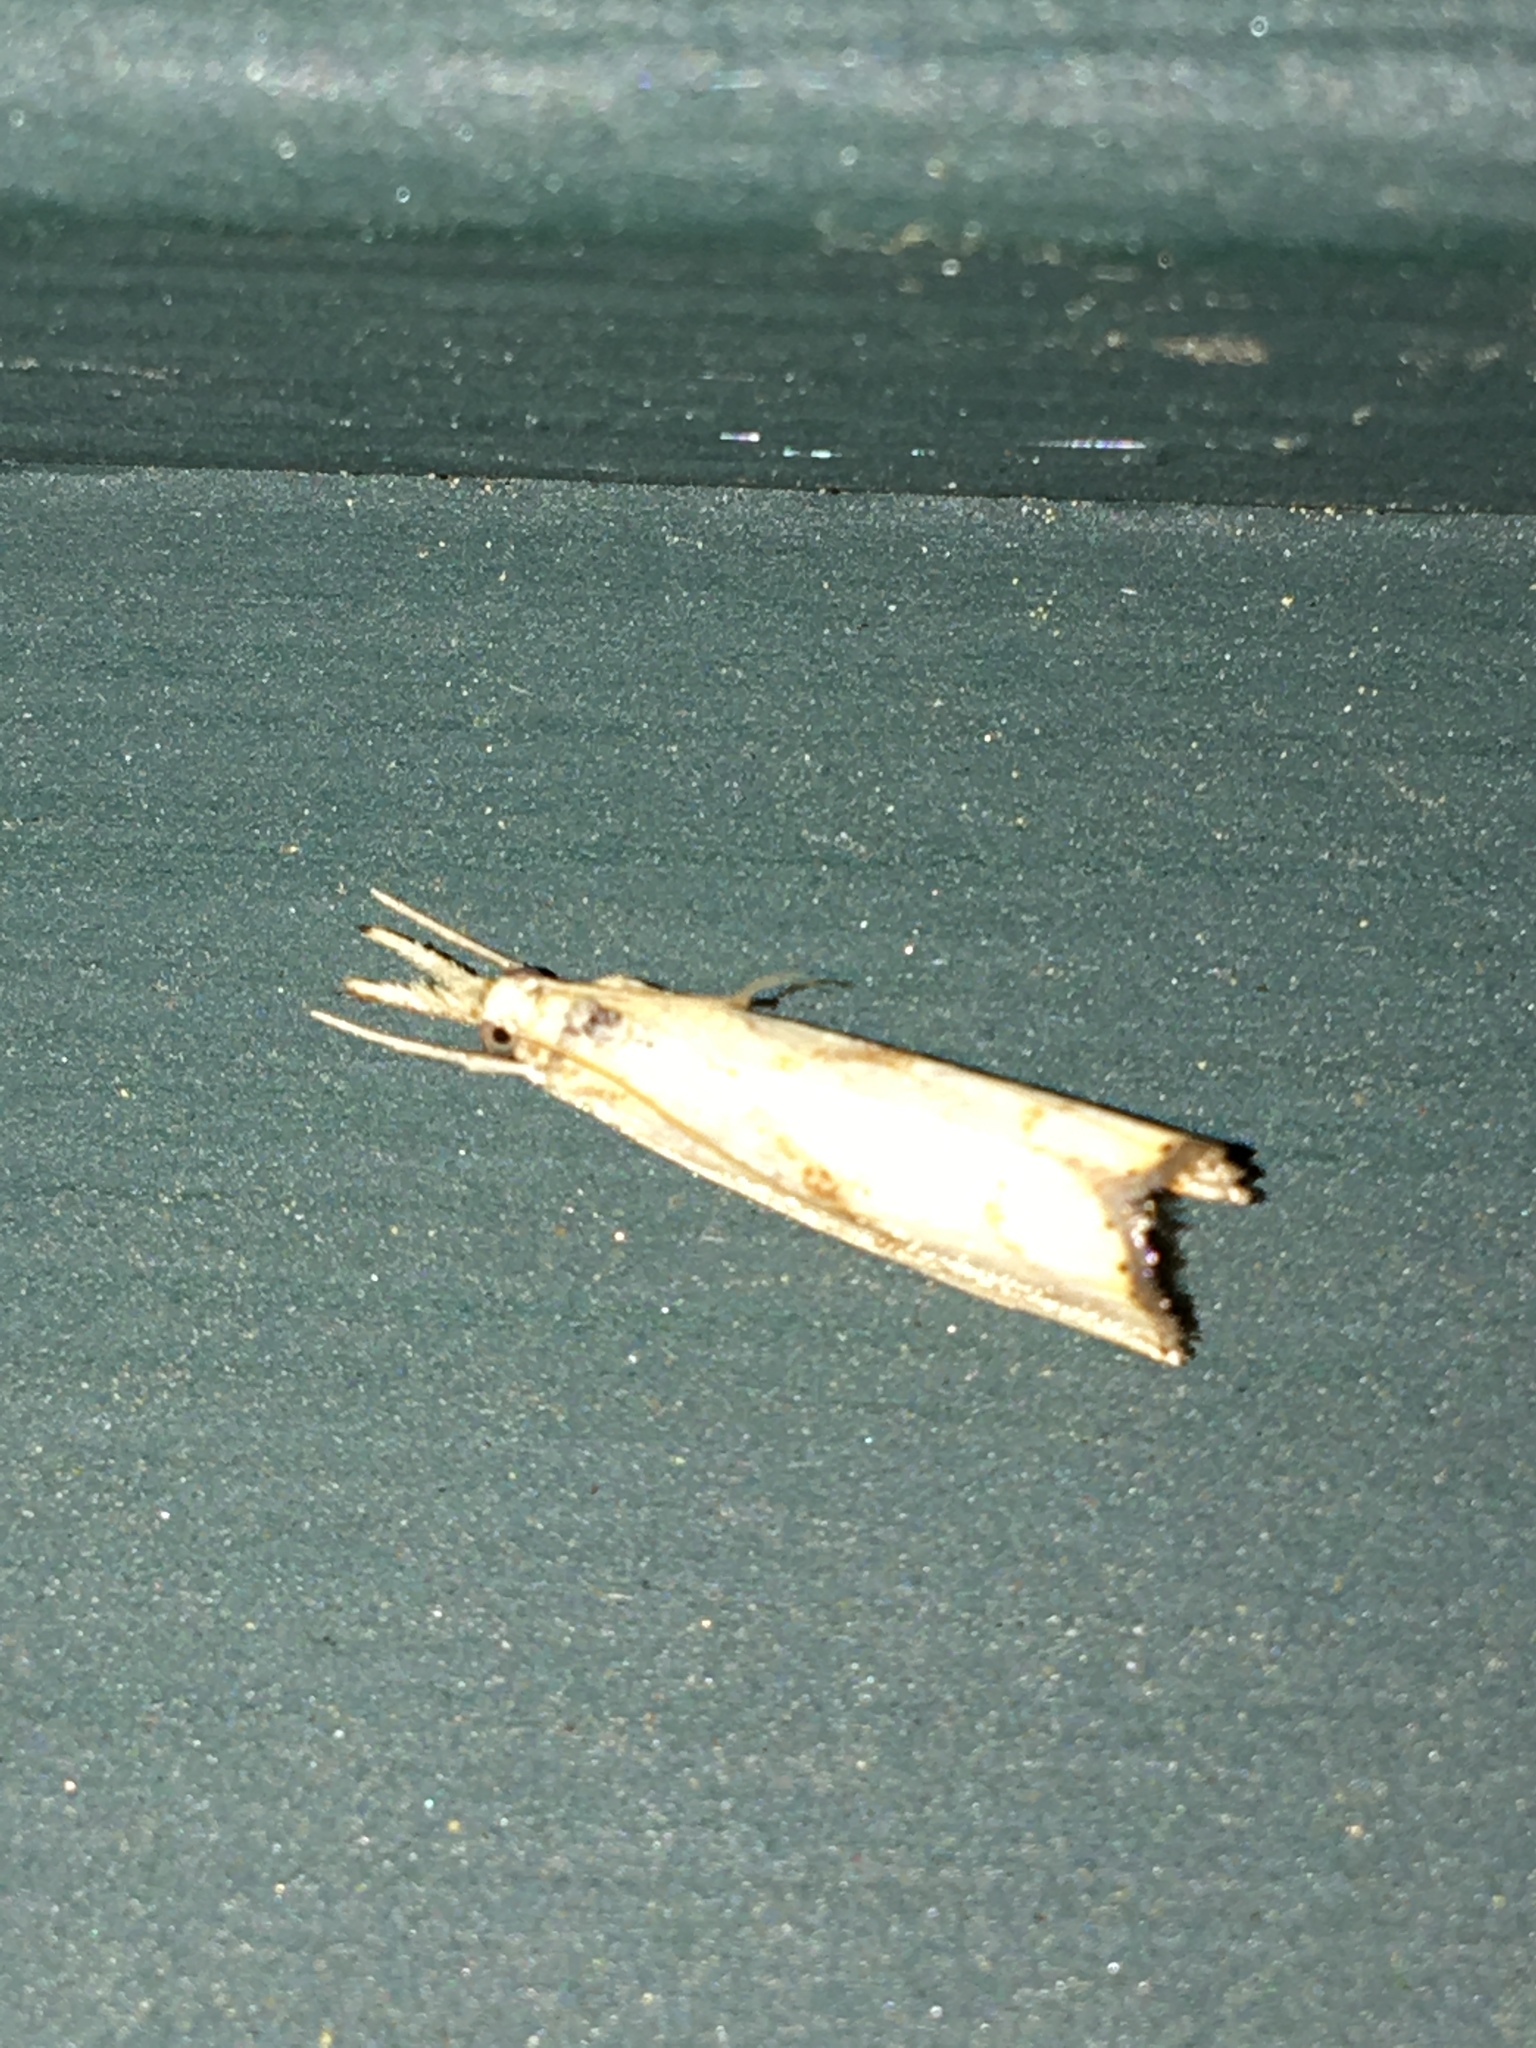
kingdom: Animalia
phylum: Arthropoda
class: Insecta
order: Lepidoptera
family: Crambidae
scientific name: Crambidae
